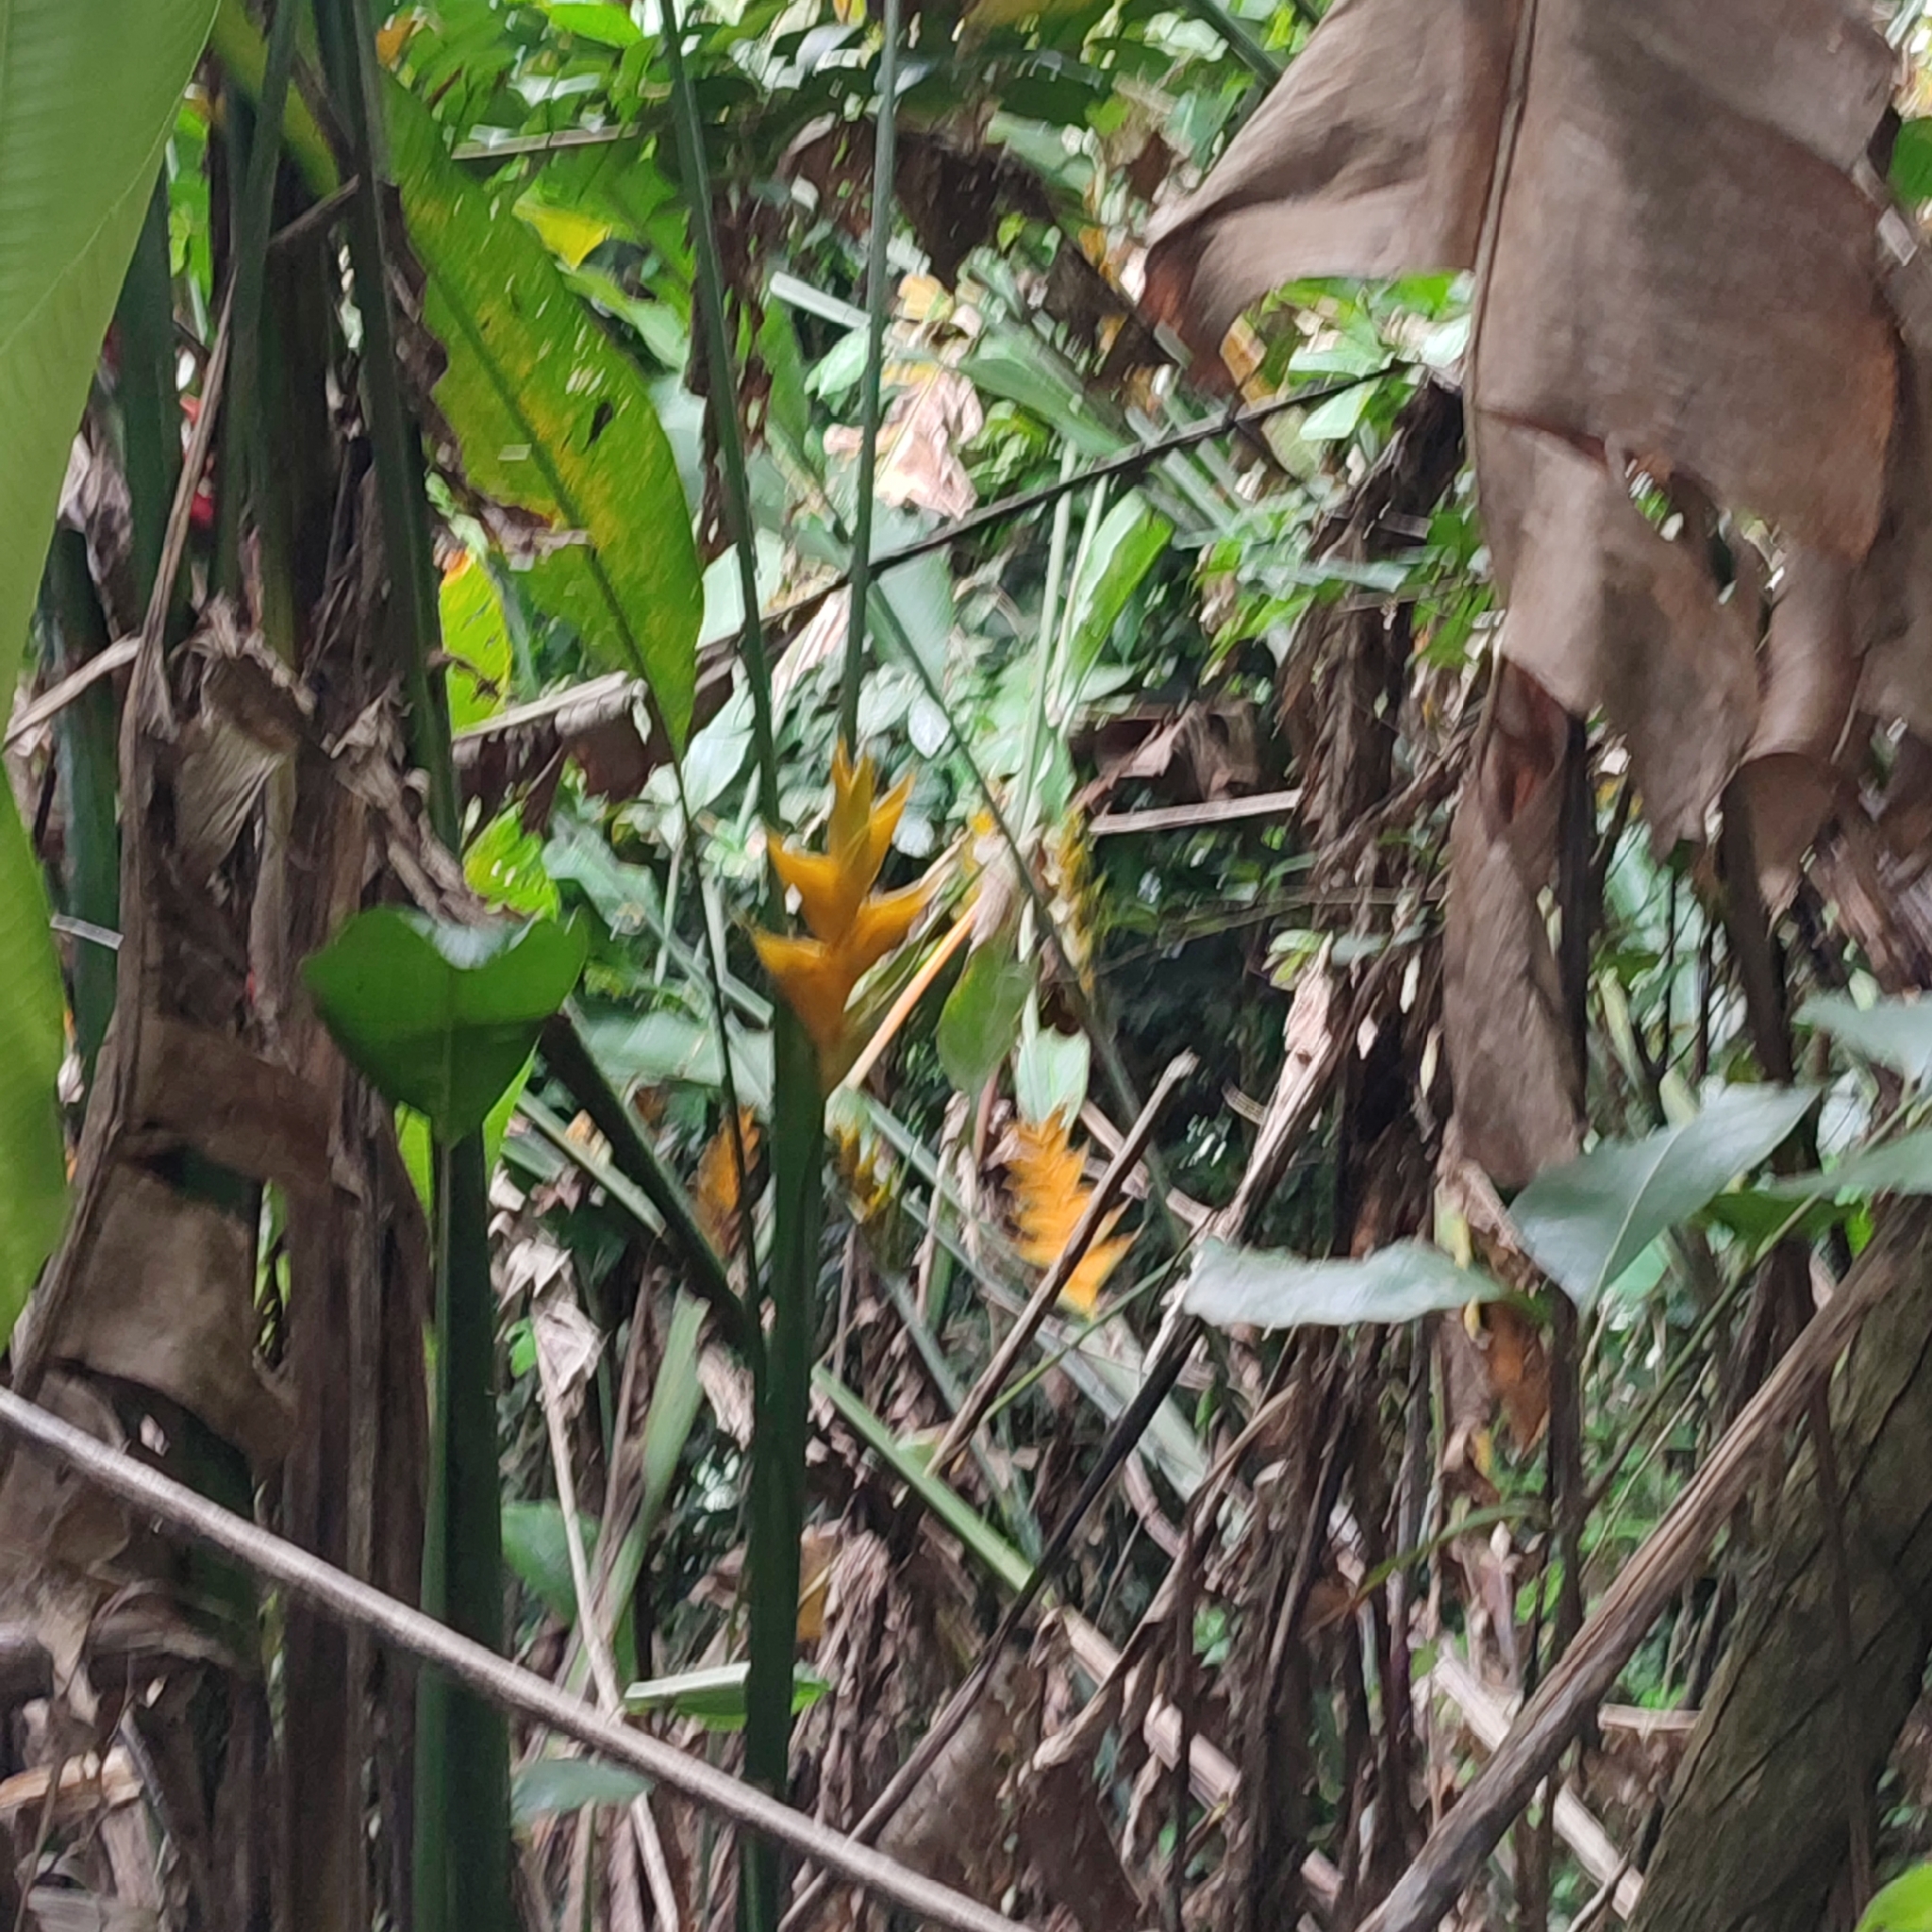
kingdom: Plantae
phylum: Tracheophyta
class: Liliopsida
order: Zingiberales
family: Heliconiaceae
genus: Heliconia
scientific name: Heliconia caribaea
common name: Wild plantain
